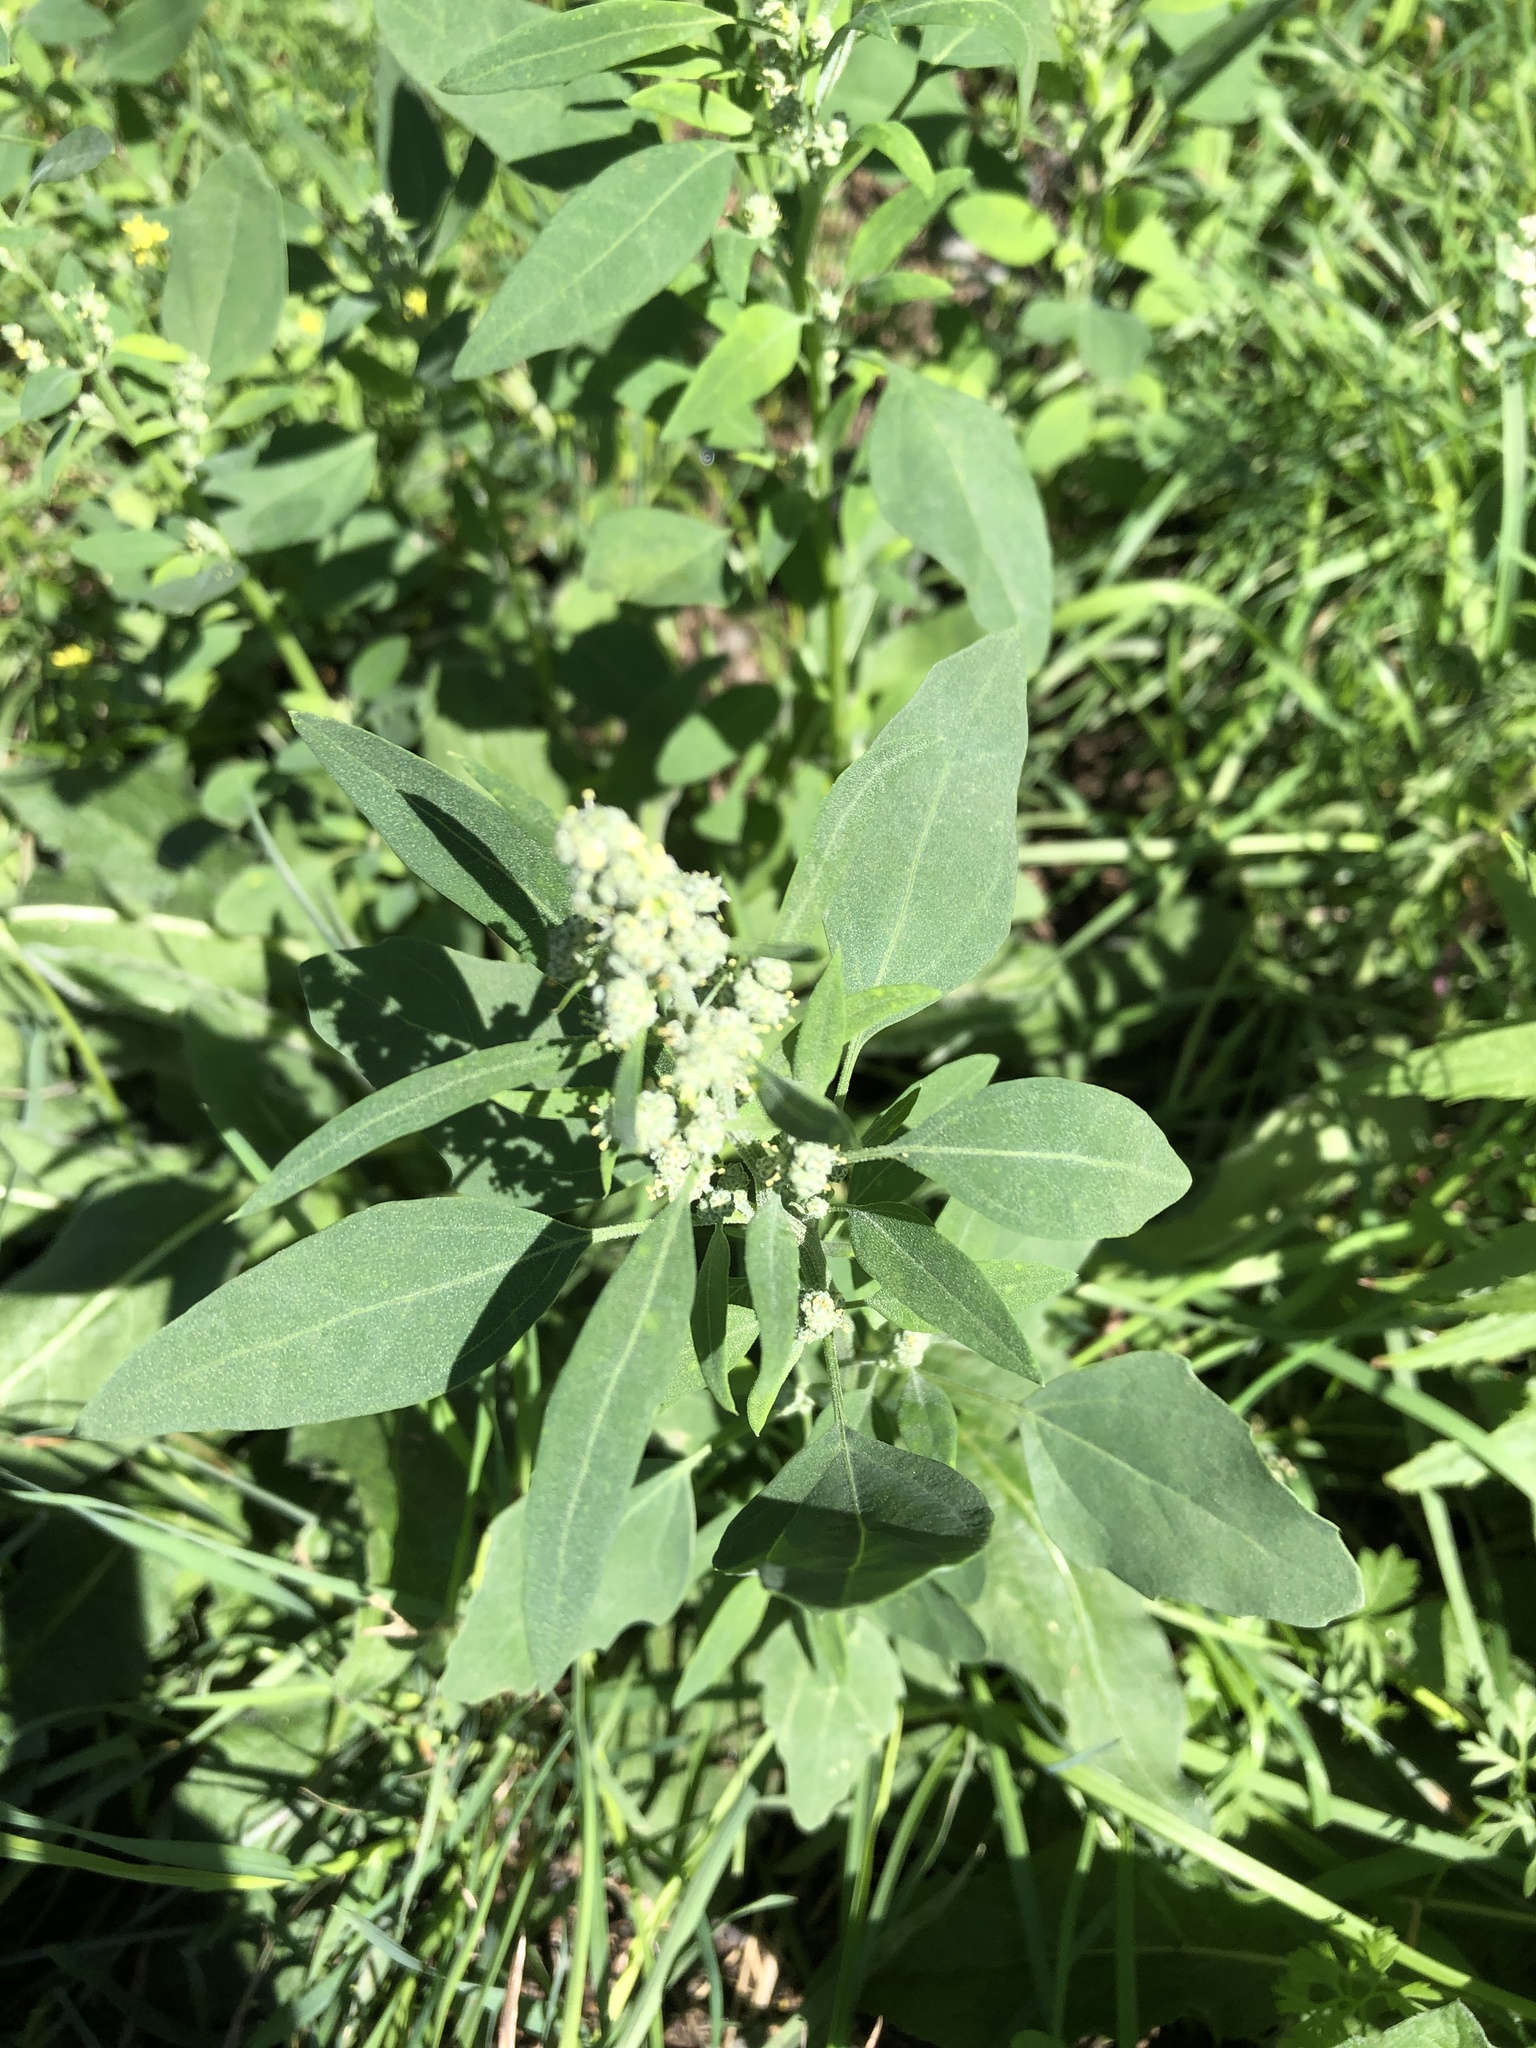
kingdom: Plantae
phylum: Tracheophyta
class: Magnoliopsida
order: Caryophyllales
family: Amaranthaceae
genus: Chenopodium
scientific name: Chenopodium album
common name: Fat-hen
